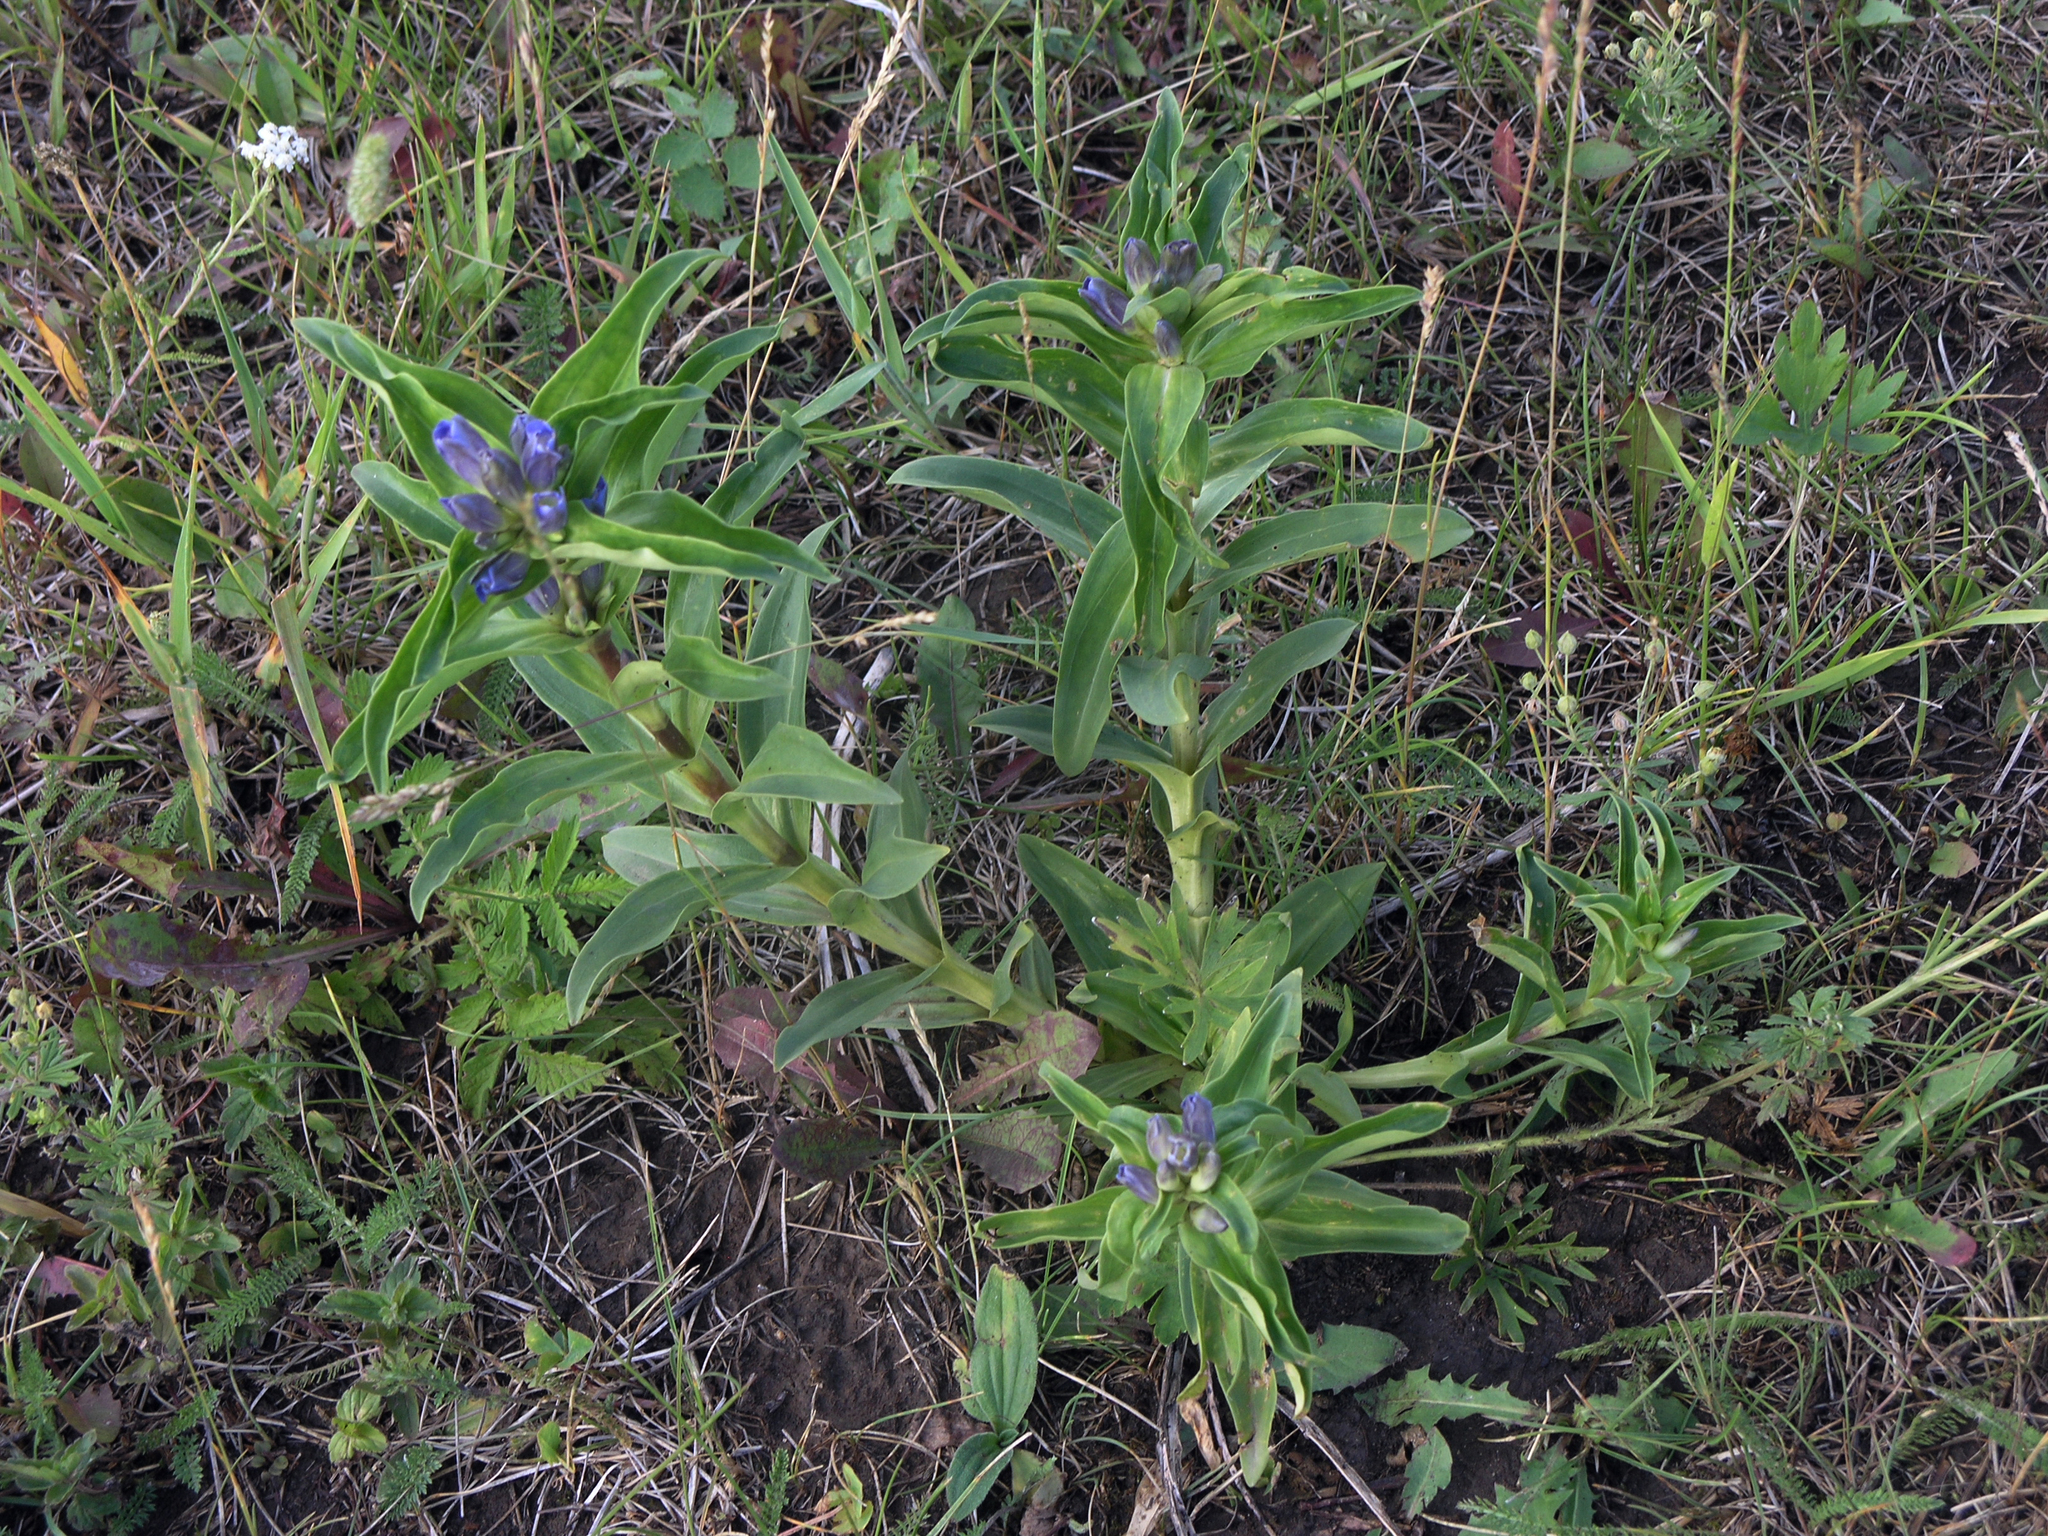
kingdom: Plantae
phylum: Tracheophyta
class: Magnoliopsida
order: Gentianales
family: Gentianaceae
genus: Gentiana
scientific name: Gentiana cruciata
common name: Cross gentian
